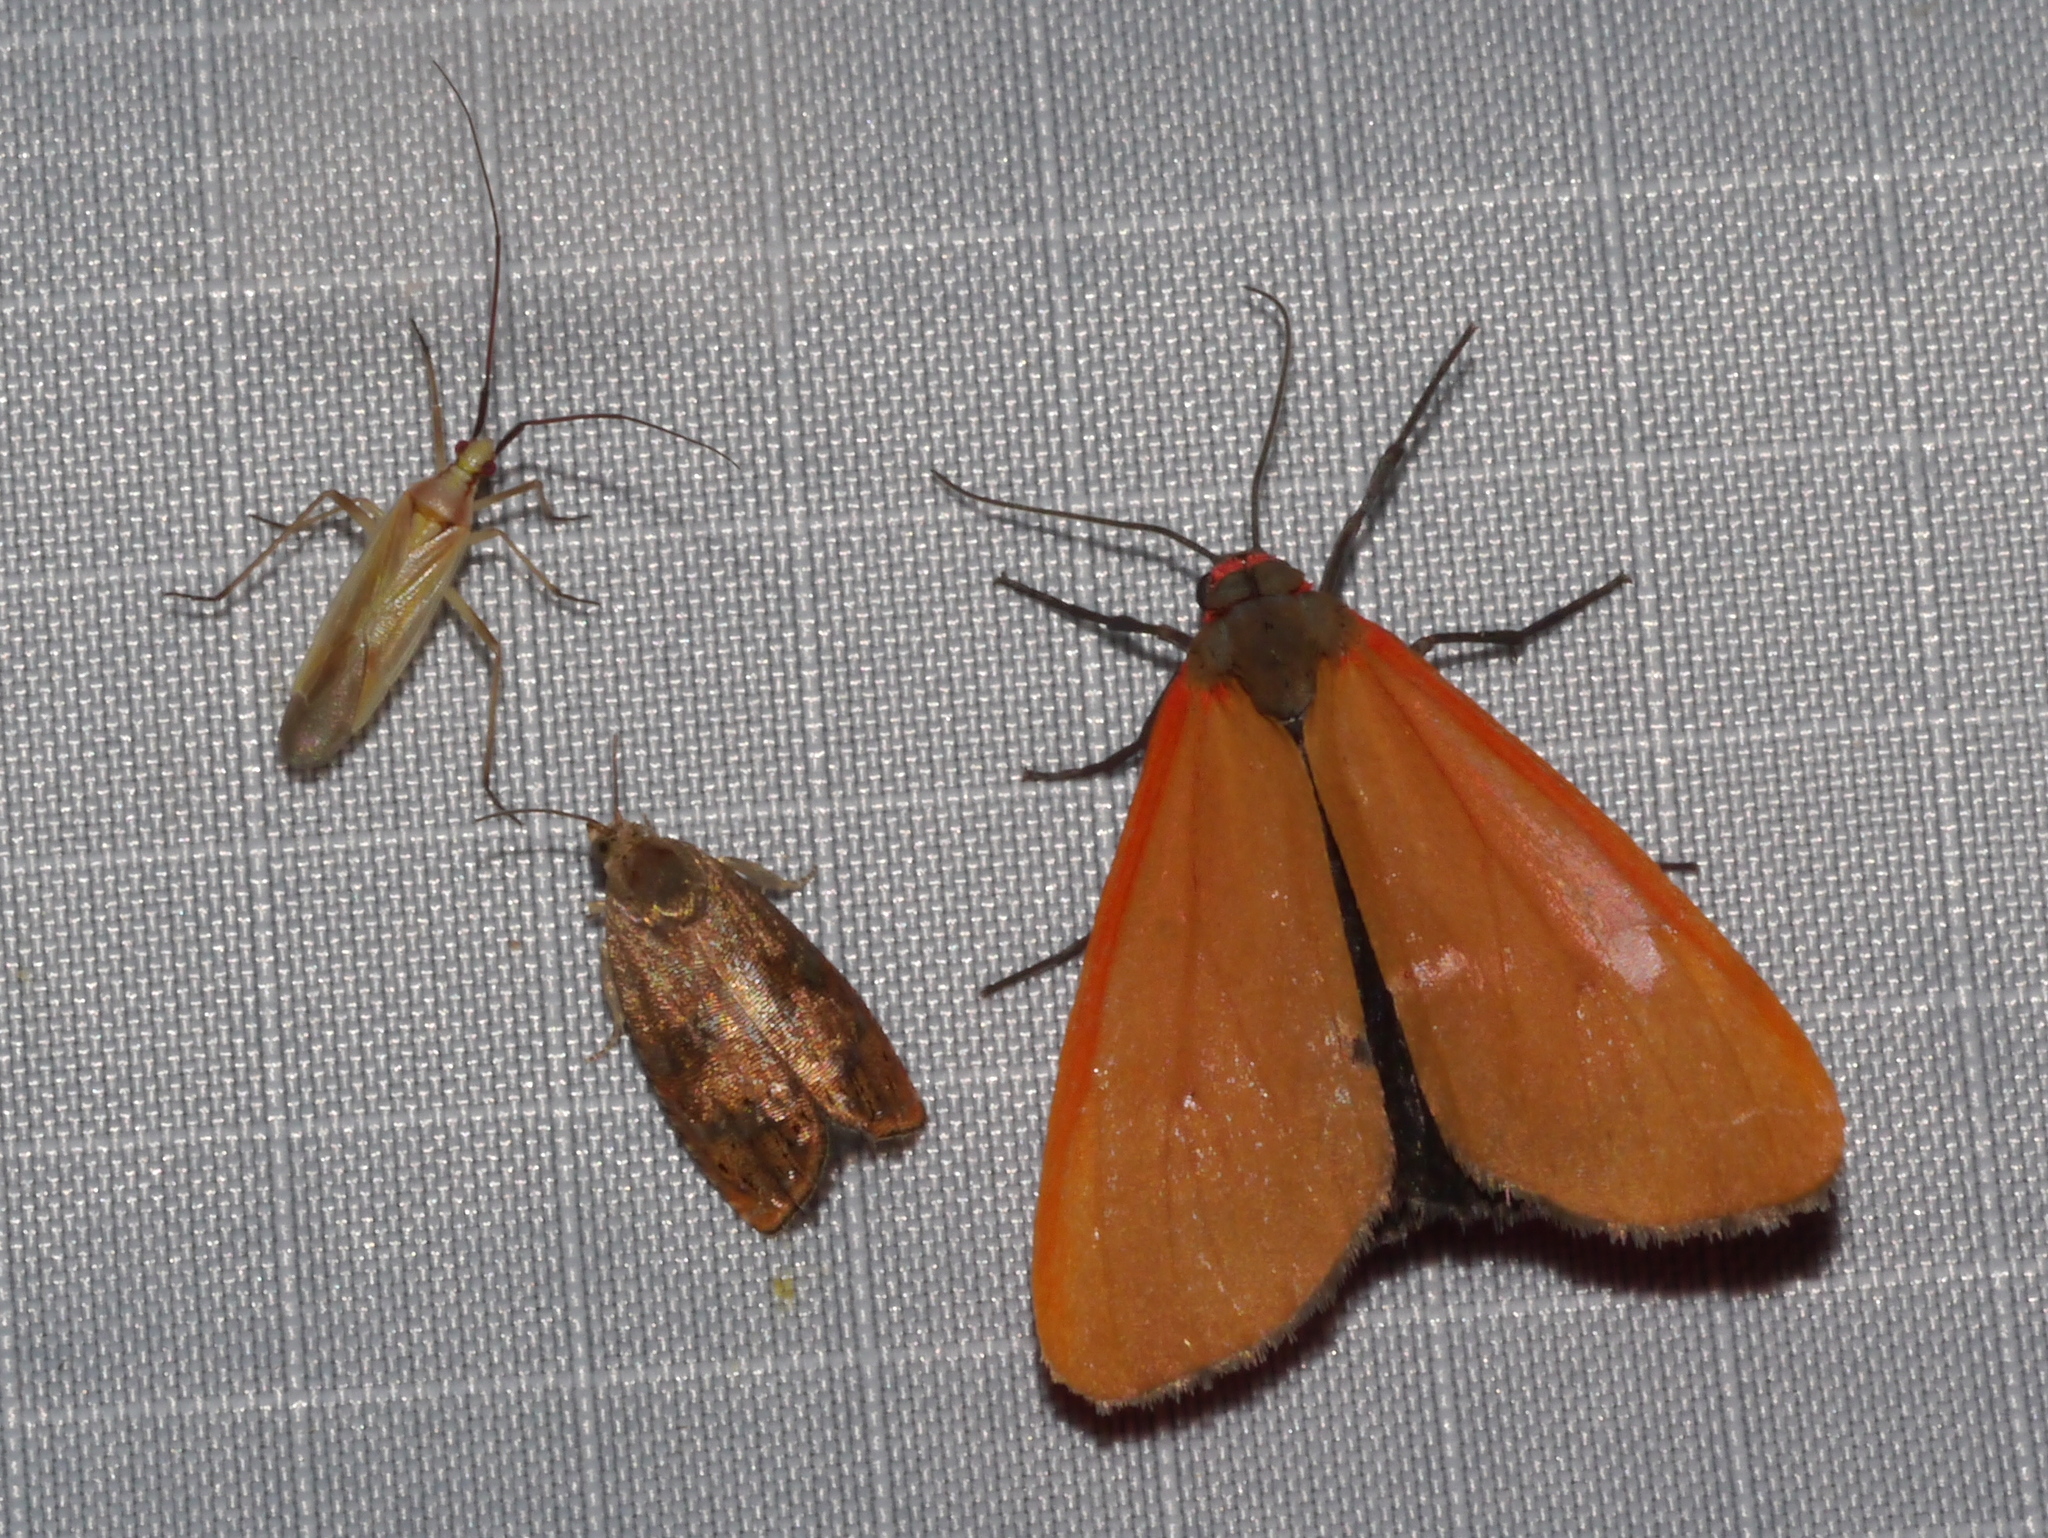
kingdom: Animalia
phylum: Arthropoda
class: Insecta
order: Lepidoptera
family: Erebidae
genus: Virbia
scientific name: Virbia ostenta
